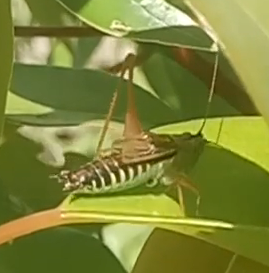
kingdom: Animalia
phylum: Arthropoda
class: Insecta
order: Orthoptera
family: Tettigoniidae
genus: Conocephalus
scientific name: Conocephalus semivittatus
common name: Blackish meadow katydid
